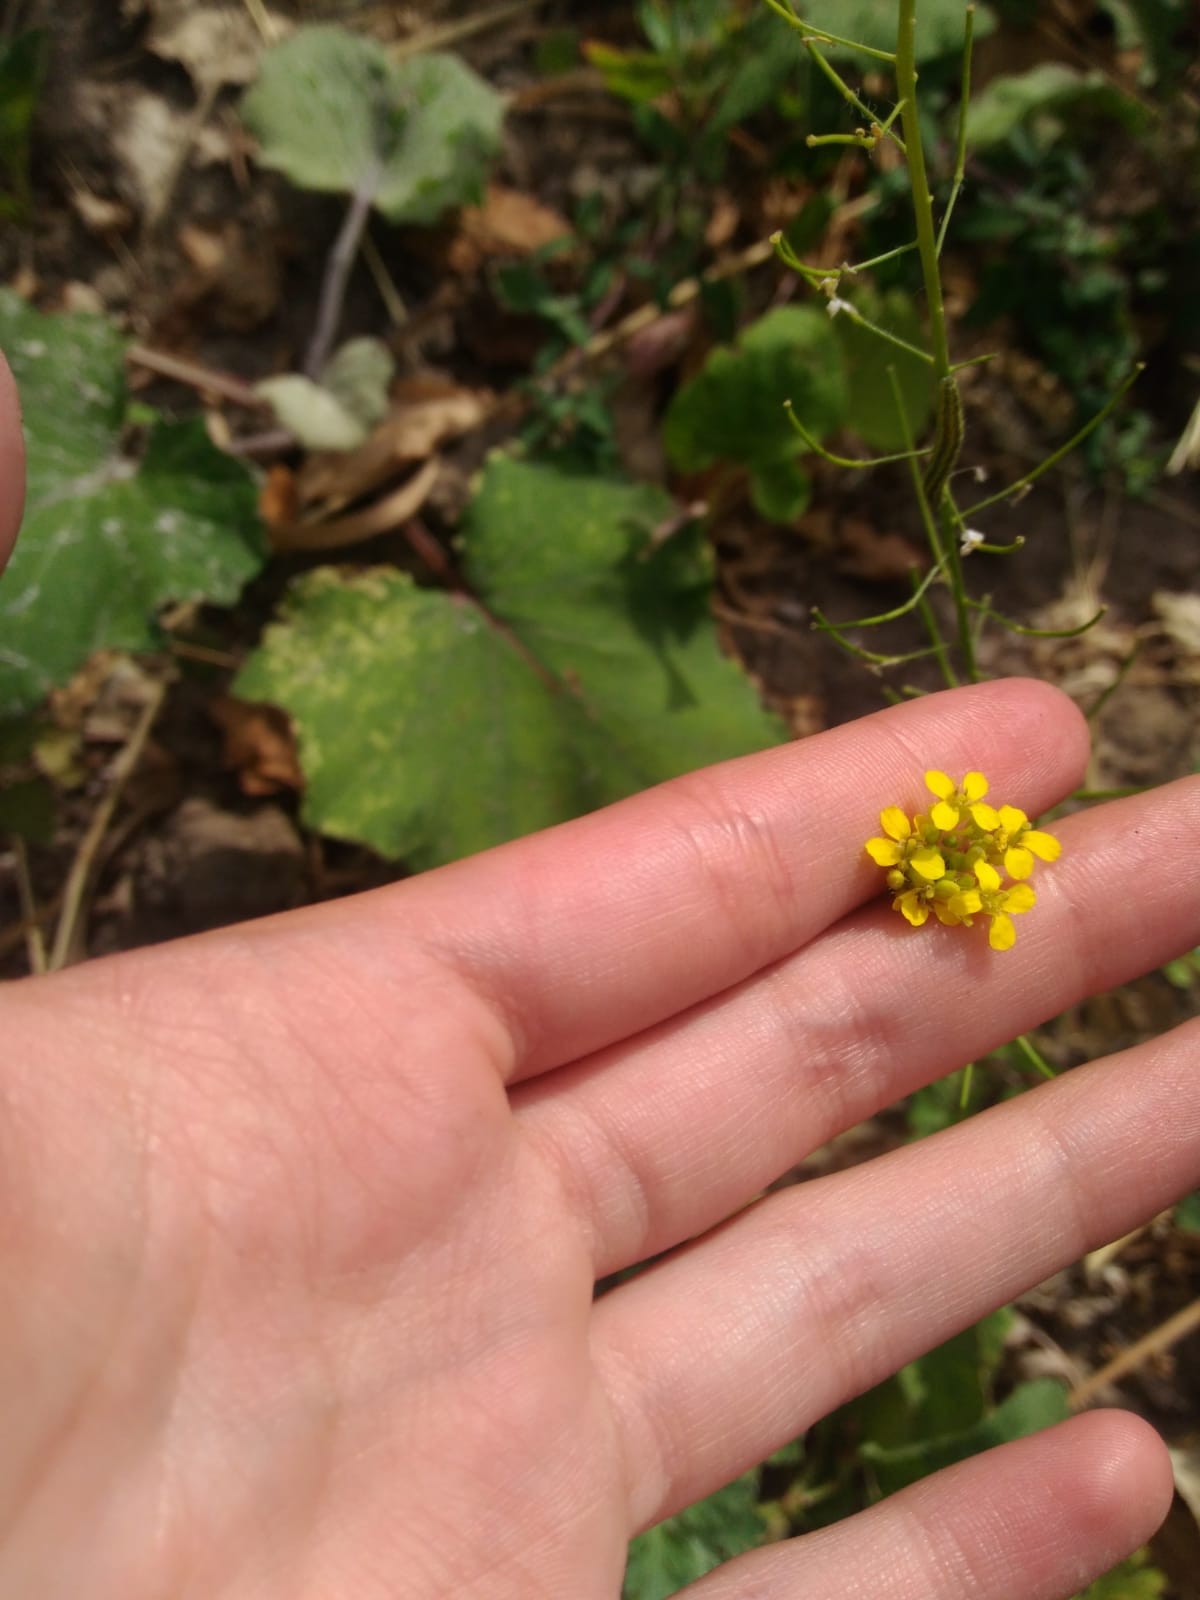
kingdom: Plantae
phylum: Tracheophyta
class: Magnoliopsida
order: Brassicales
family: Brassicaceae
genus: Sisymbrium
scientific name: Sisymbrium loeselii
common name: False london-rocket
